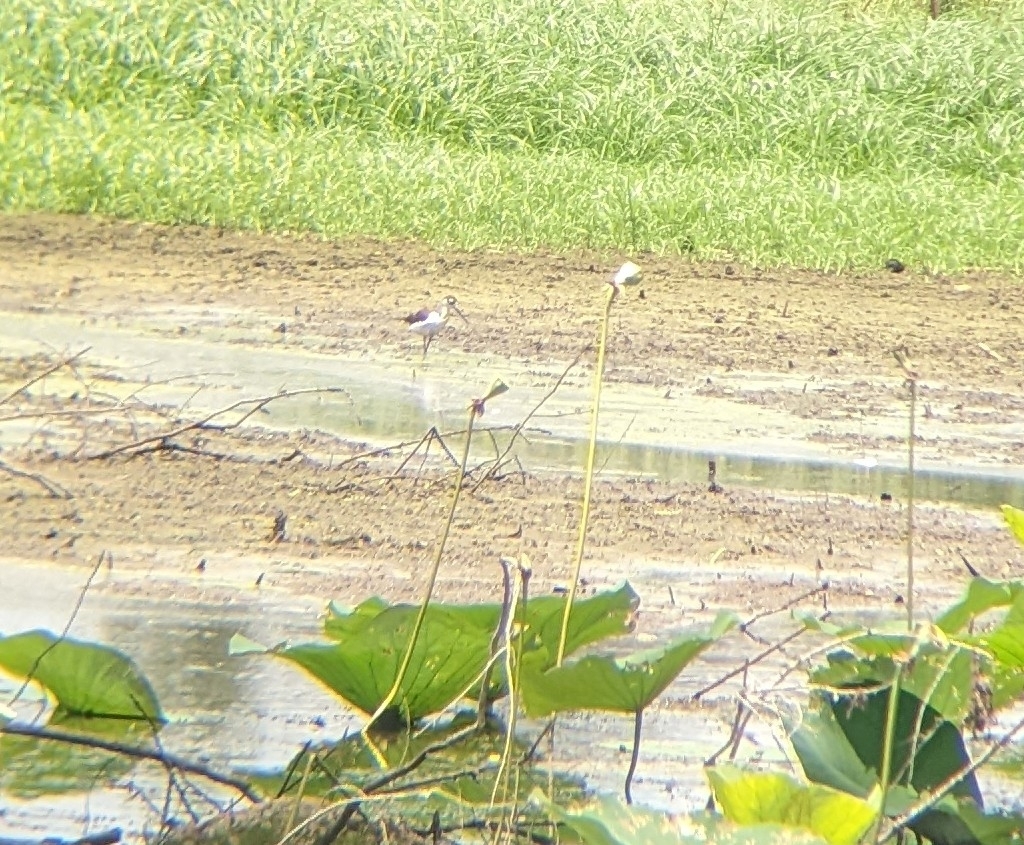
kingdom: Animalia
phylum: Chordata
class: Aves
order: Charadriiformes
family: Recurvirostridae
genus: Himantopus
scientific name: Himantopus mexicanus
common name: Black-necked stilt
